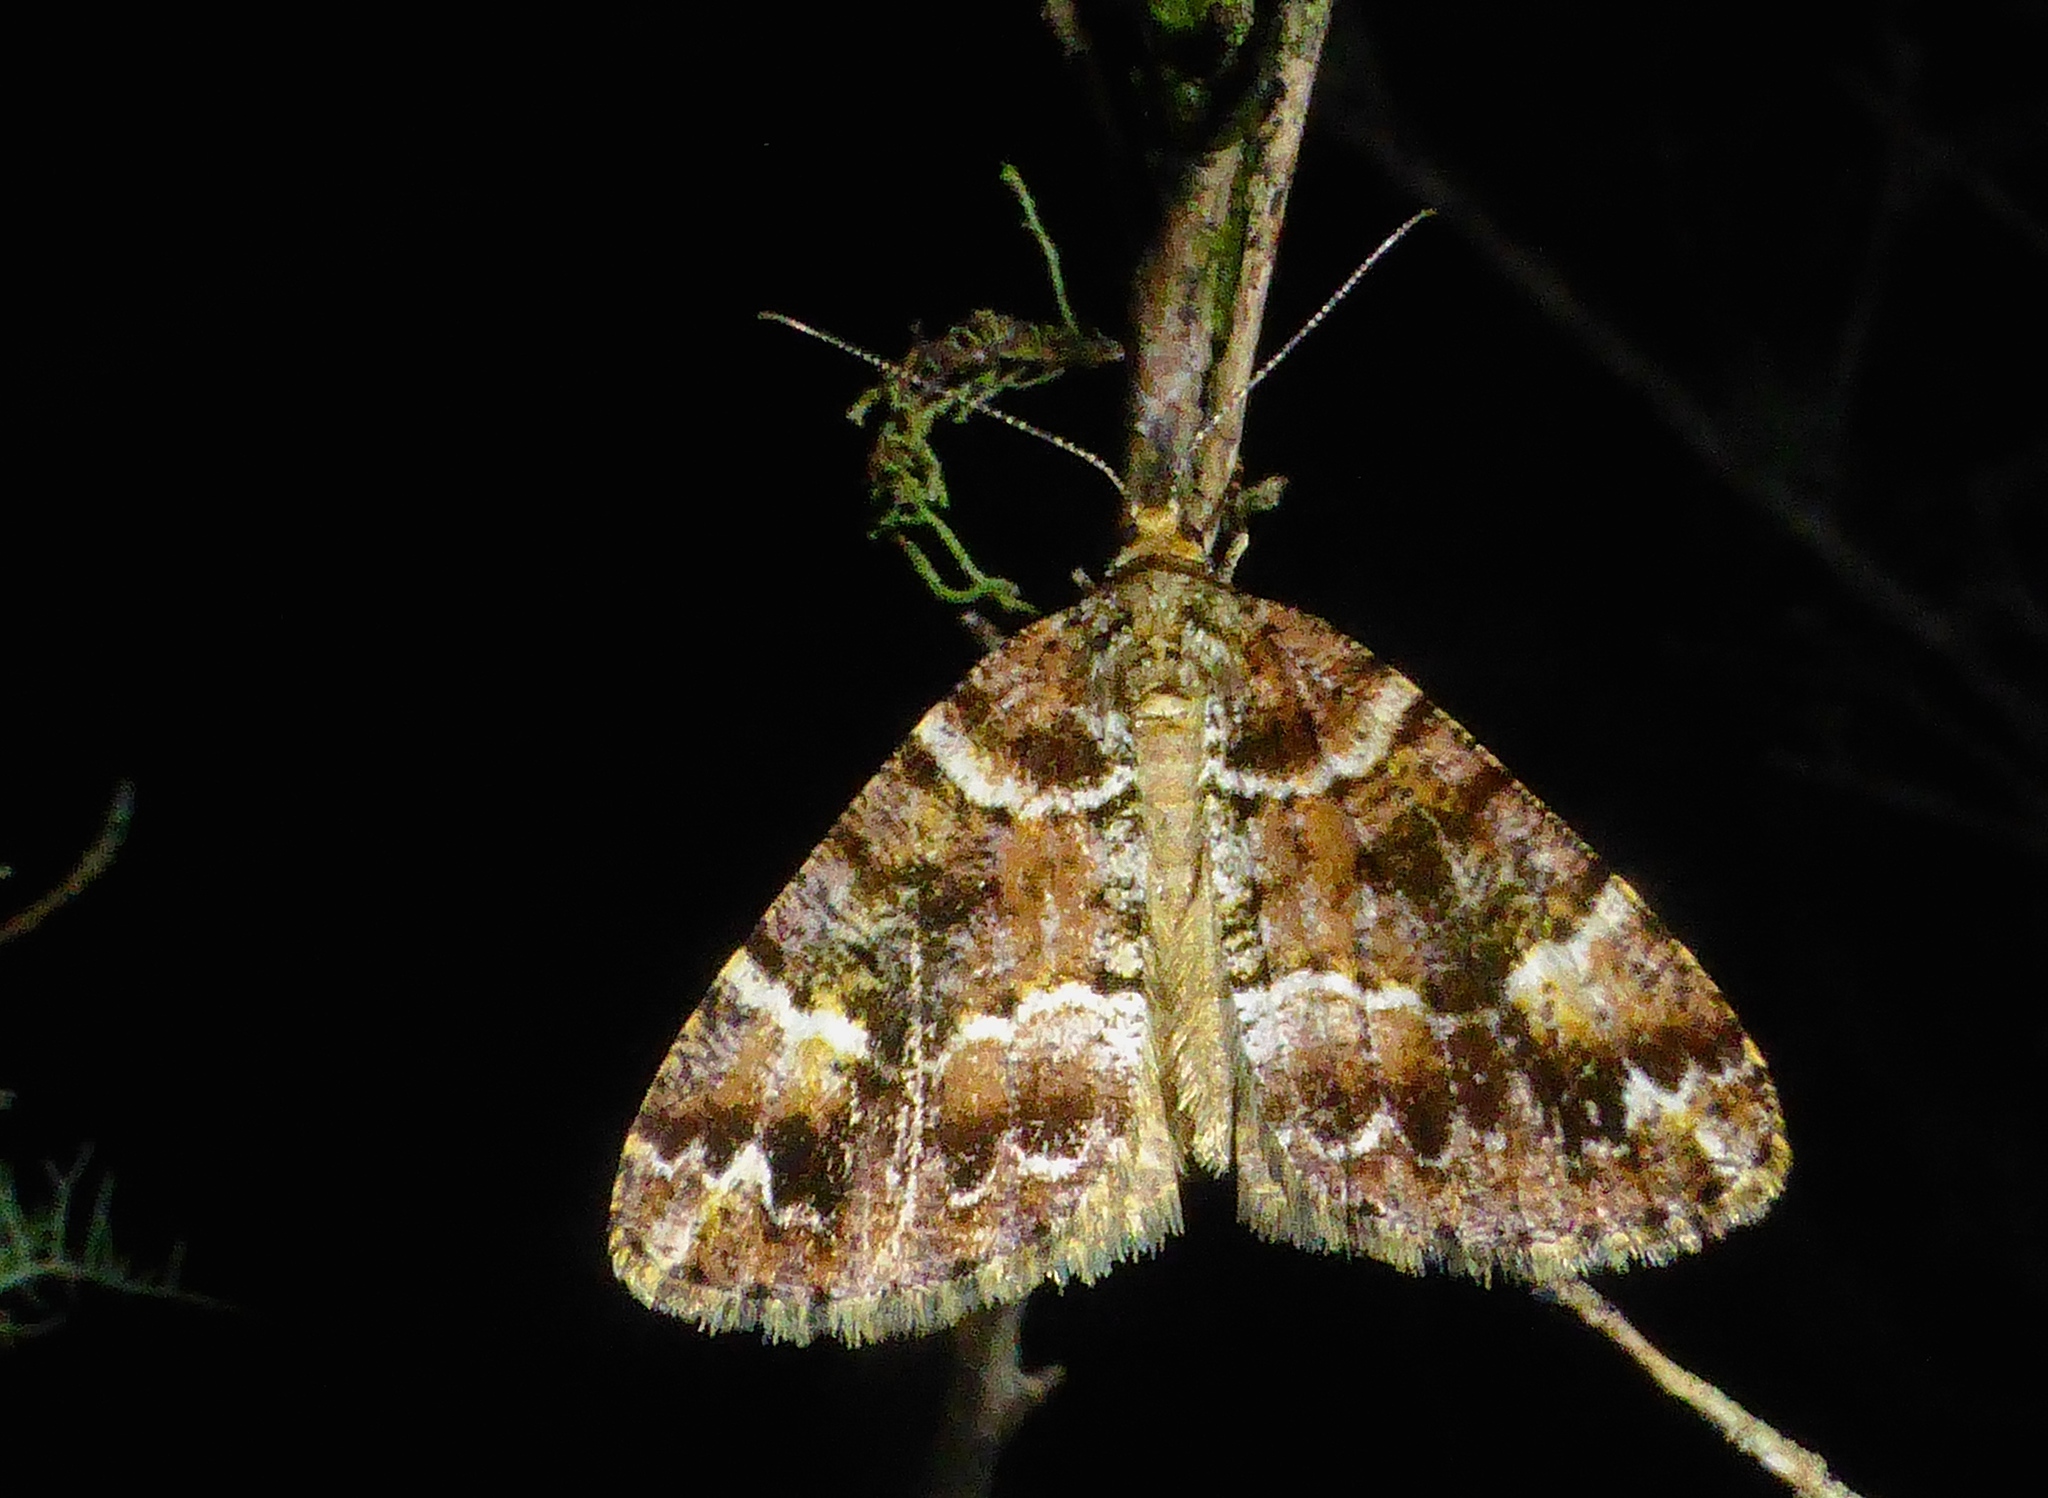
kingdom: Animalia
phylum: Arthropoda
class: Insecta
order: Lepidoptera
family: Geometridae
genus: Pseudocoremia
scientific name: Pseudocoremia productata
